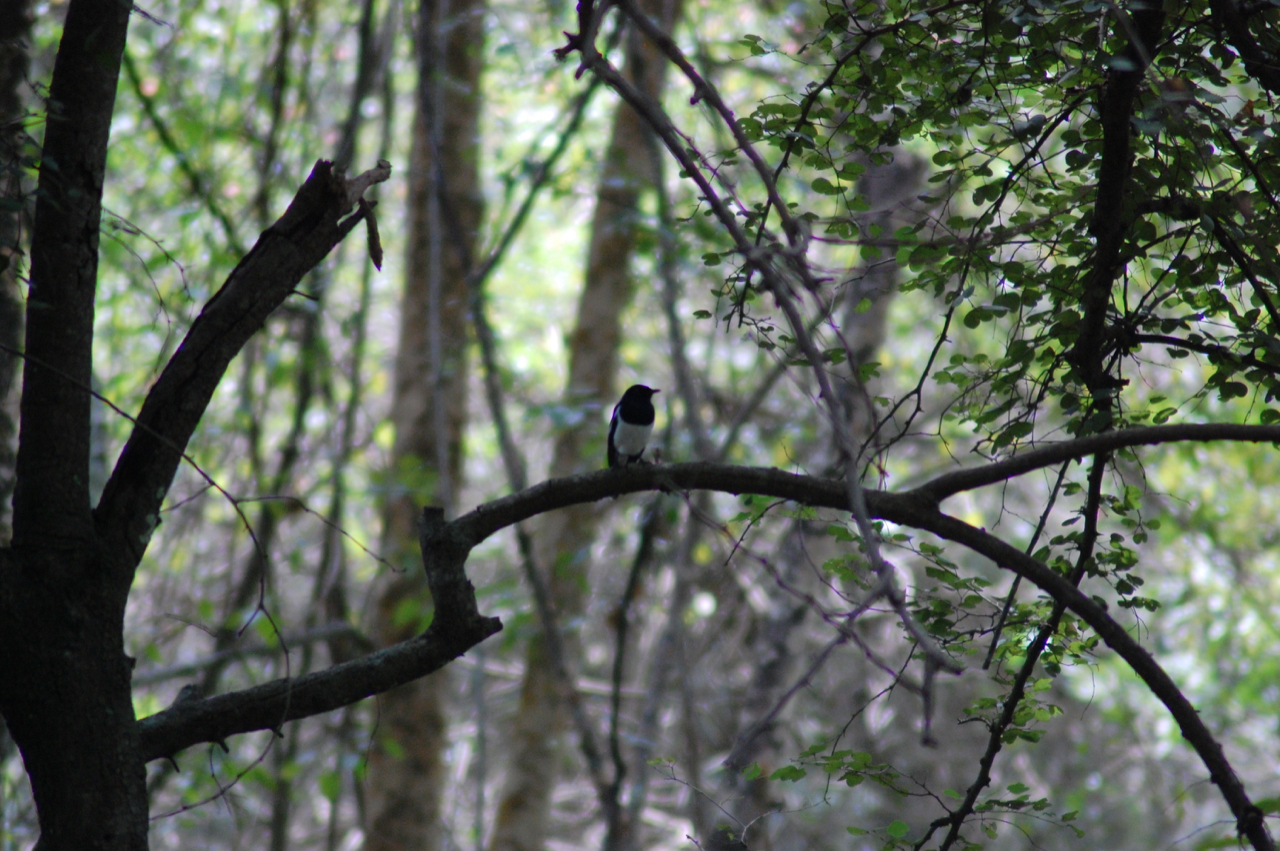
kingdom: Animalia
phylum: Chordata
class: Aves
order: Passeriformes
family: Muscicapidae
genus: Copsychus
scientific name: Copsychus saularis
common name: Oriental magpie-robin
